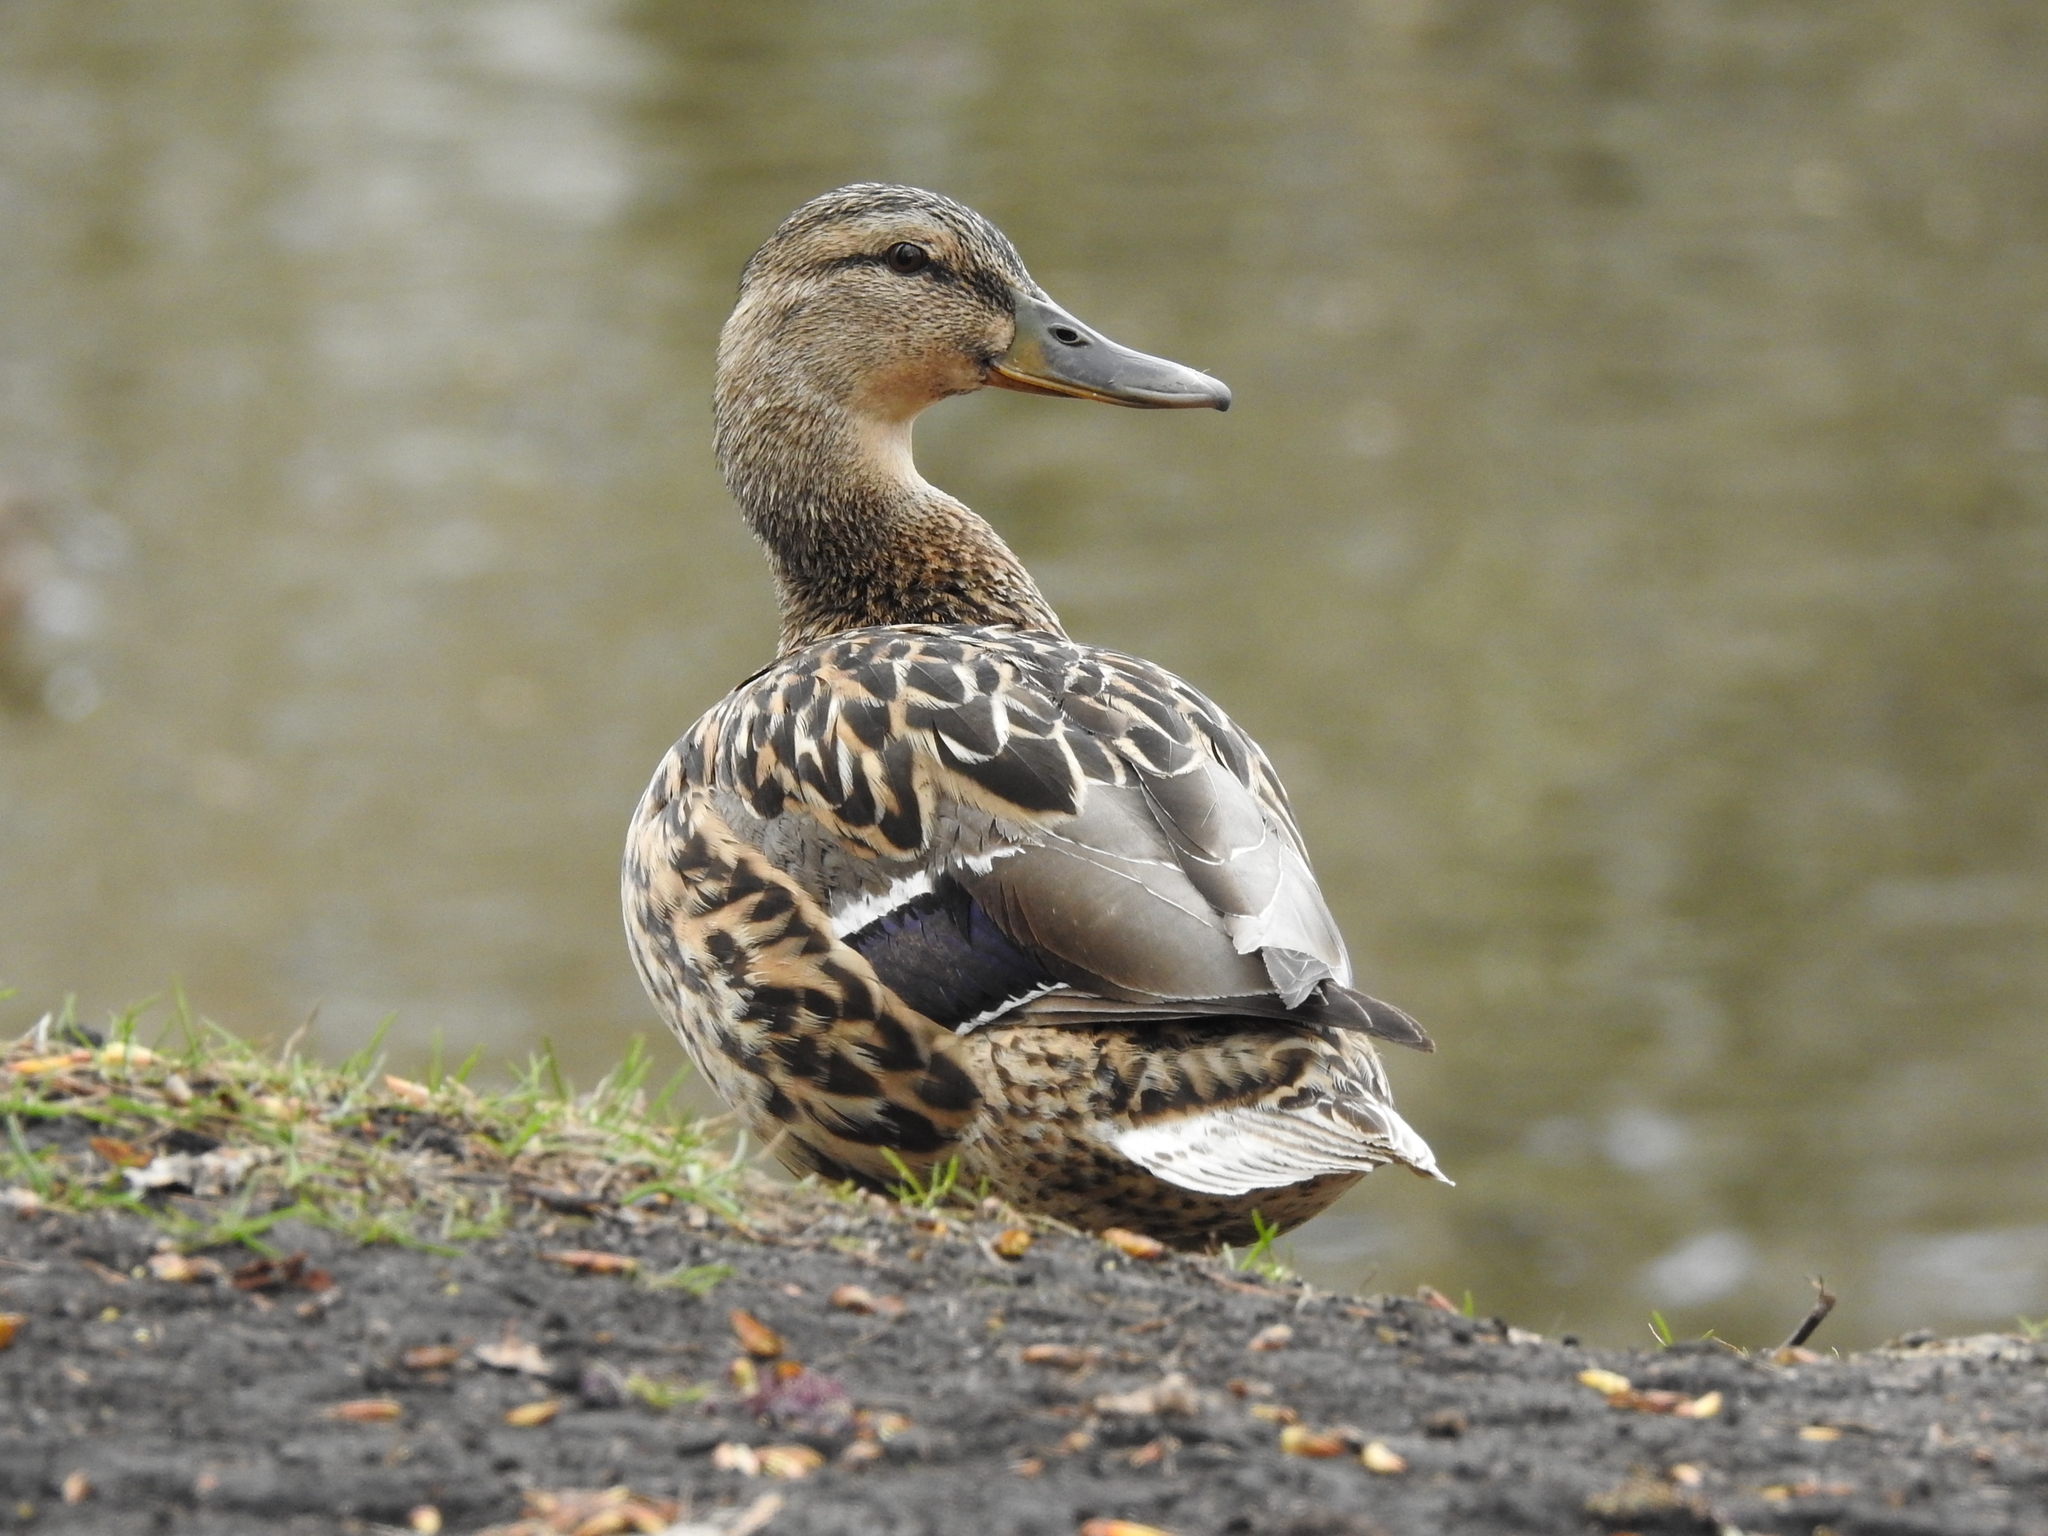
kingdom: Animalia
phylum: Chordata
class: Aves
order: Anseriformes
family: Anatidae
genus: Anas
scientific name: Anas platyrhynchos
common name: Mallard
